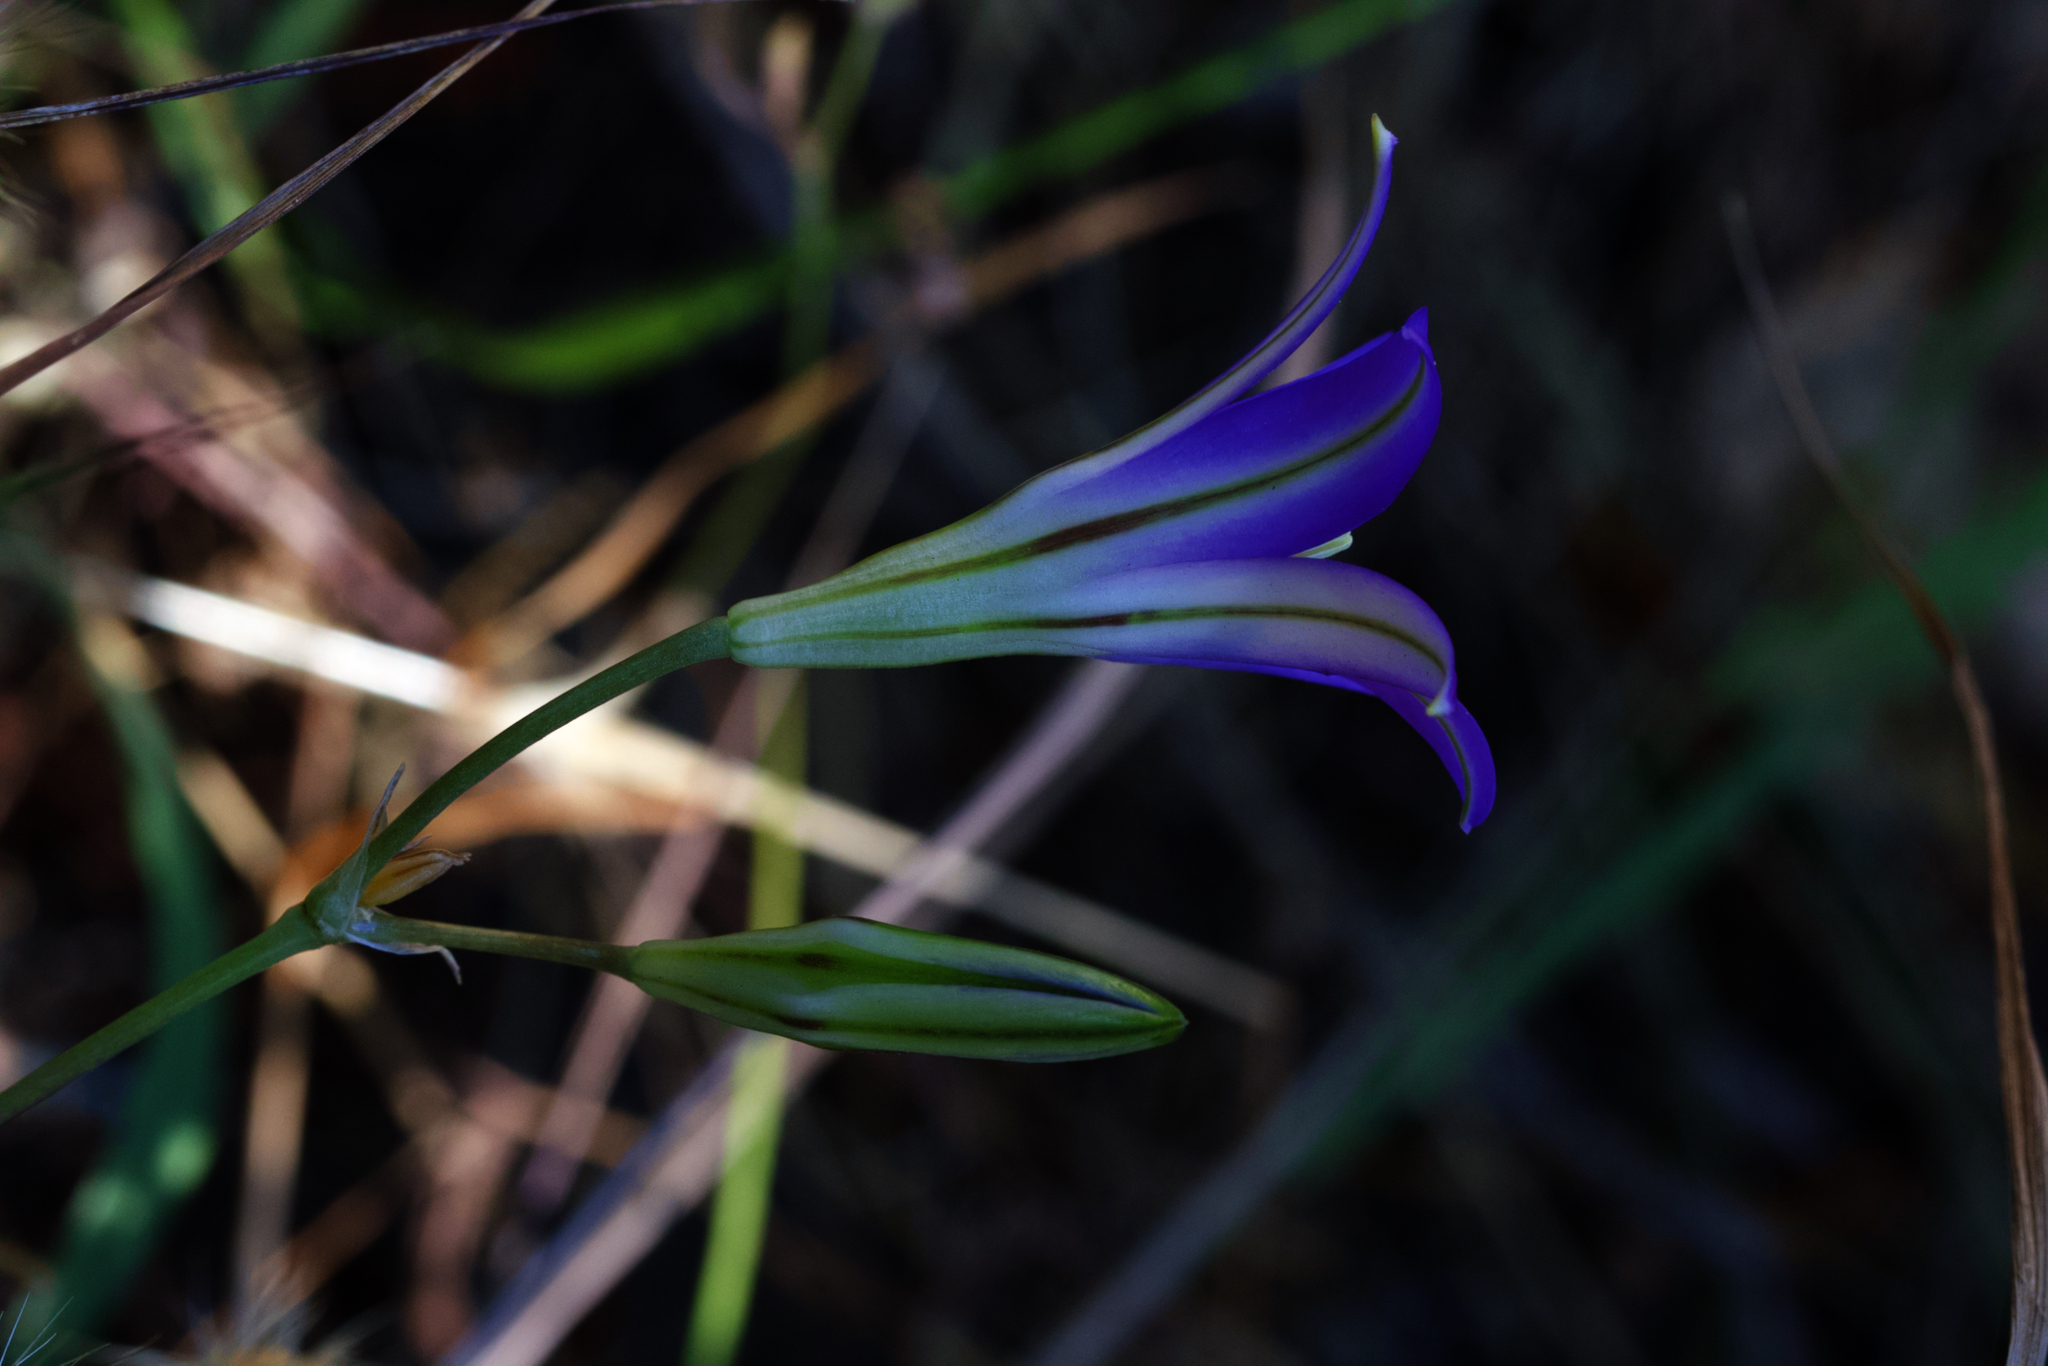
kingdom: Plantae
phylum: Tracheophyta
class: Liliopsida
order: Asparagales
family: Asparagaceae
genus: Brodiaea
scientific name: Brodiaea elegans
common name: Elegant cluster-lily
